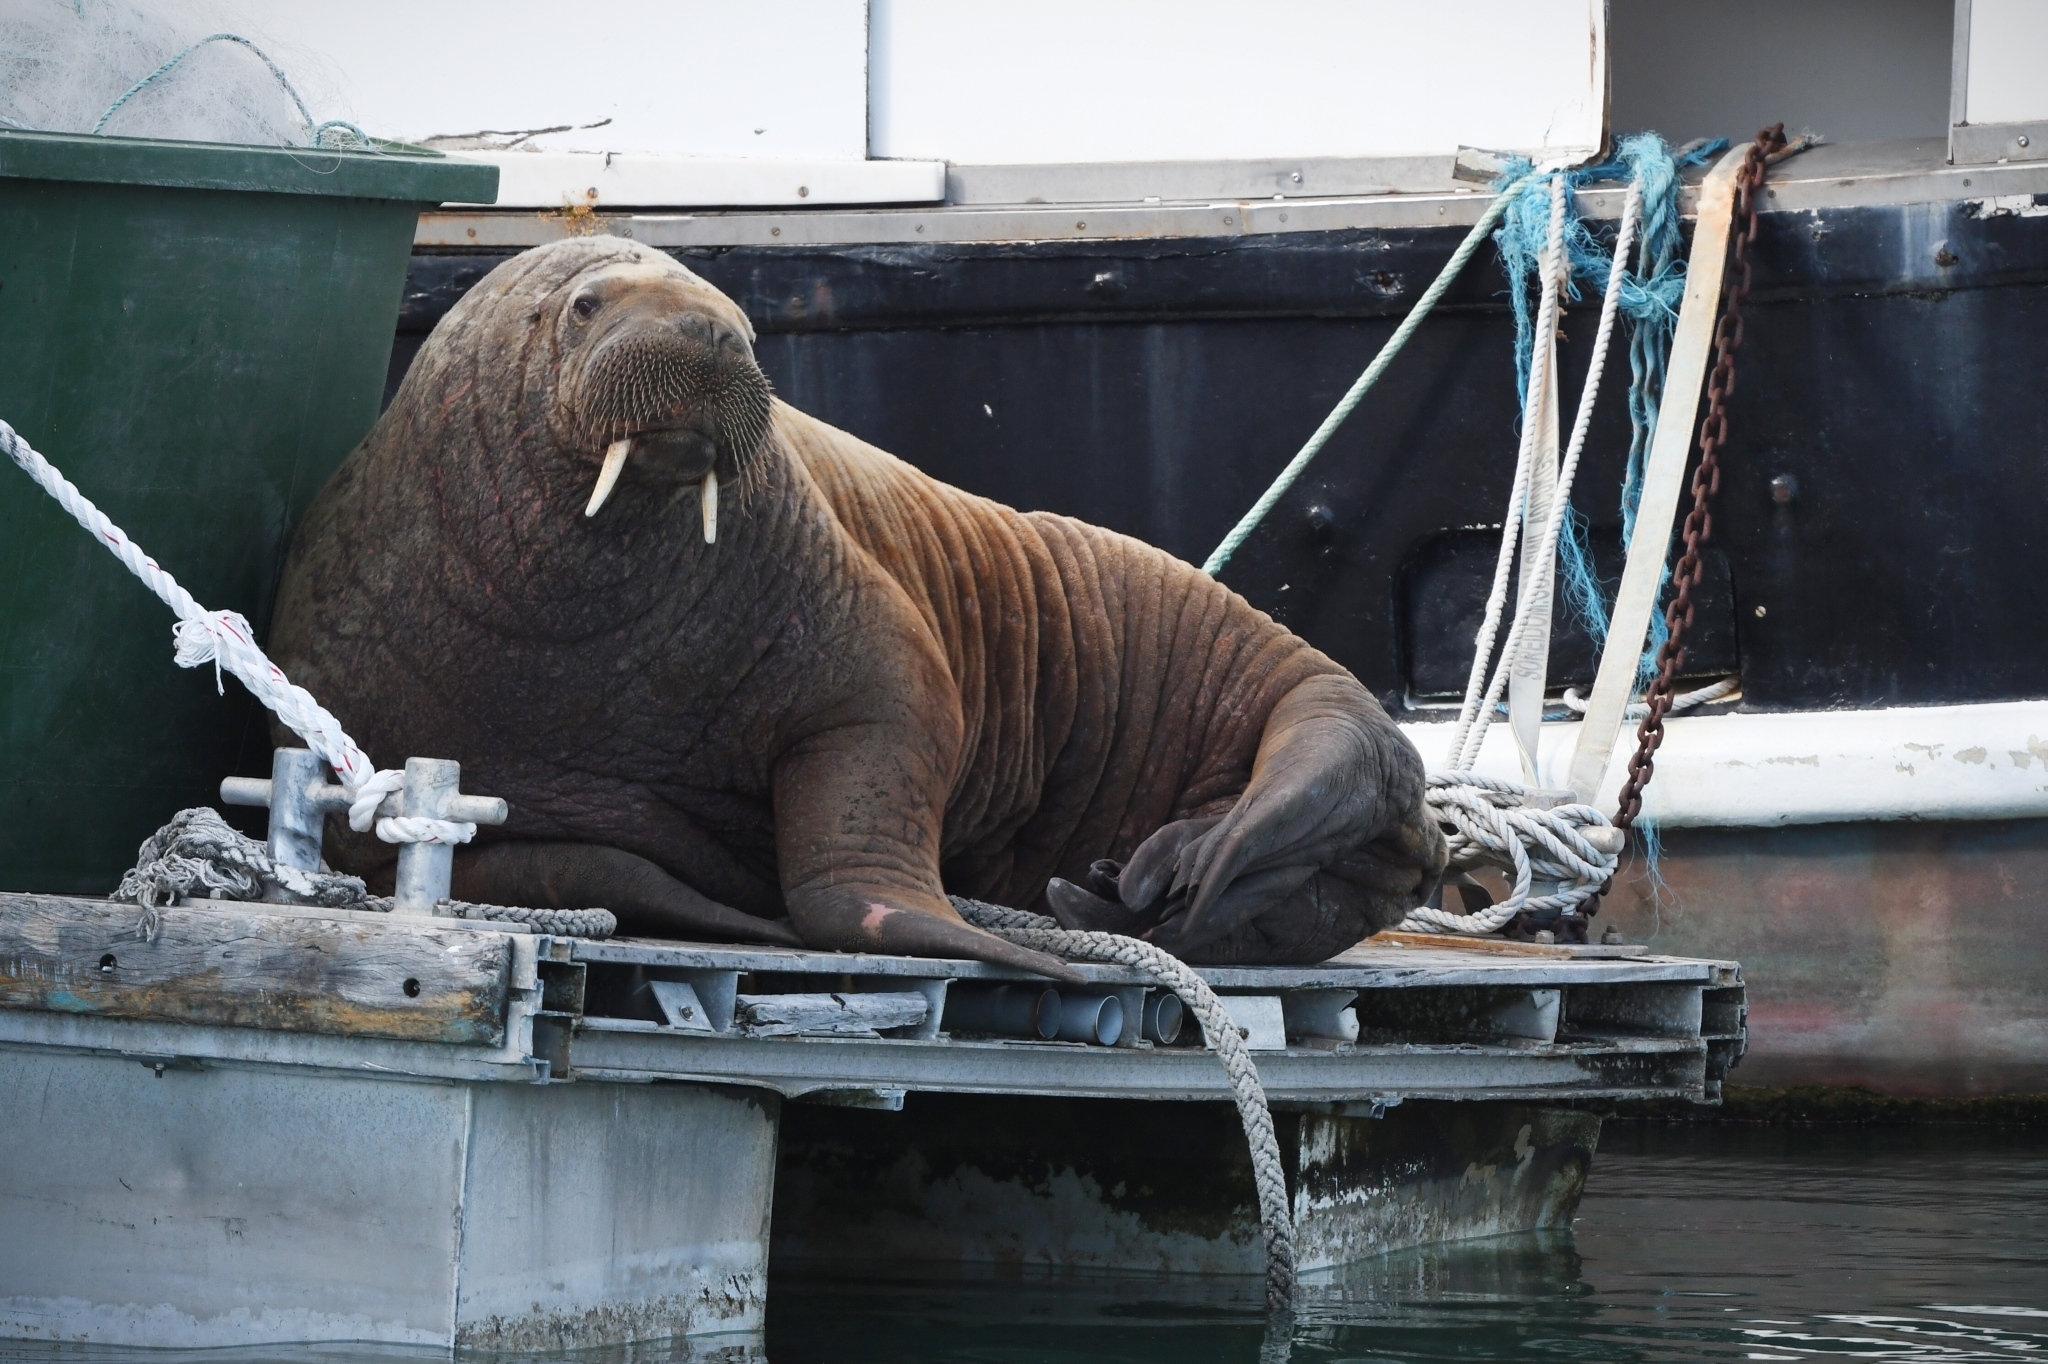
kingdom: Animalia
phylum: Chordata
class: Mammalia
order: Carnivora
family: Odobenidae
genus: Odobenus
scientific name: Odobenus rosmarus
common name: Walrus
